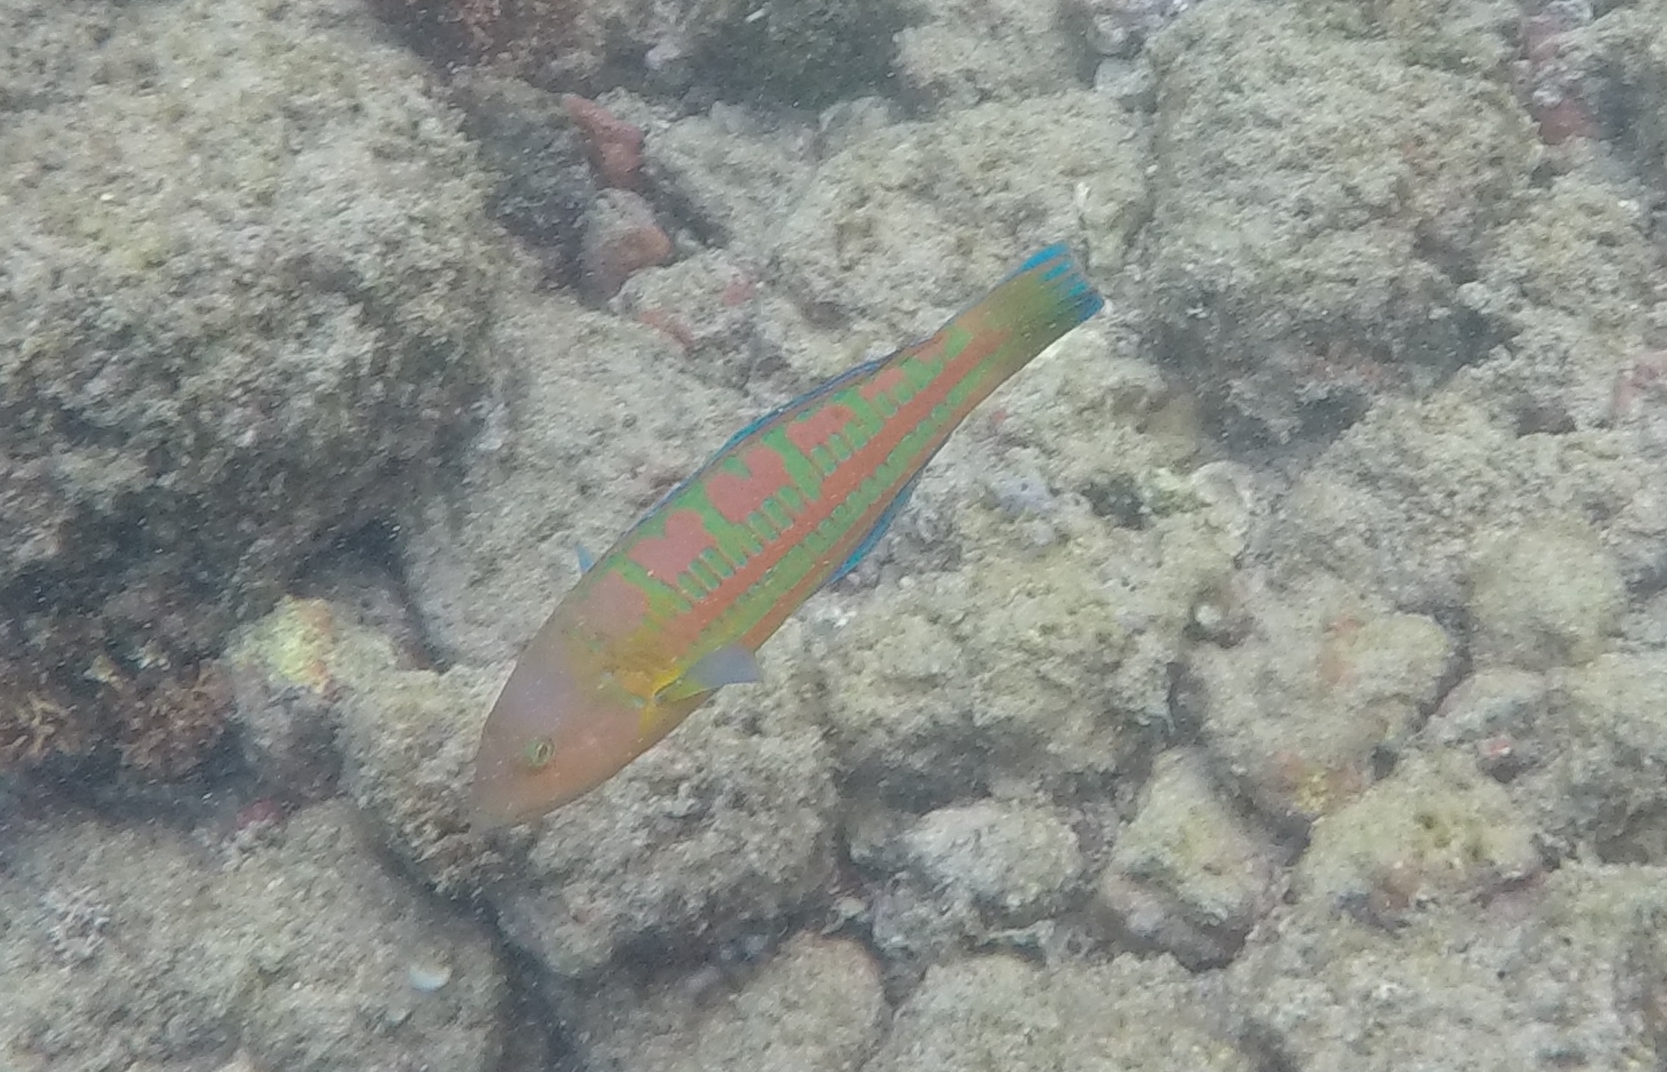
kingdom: Animalia
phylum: Chordata
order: Perciformes
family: Labridae
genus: Thalassoma
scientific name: Thalassoma trilobatum
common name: Christmas wrasse
